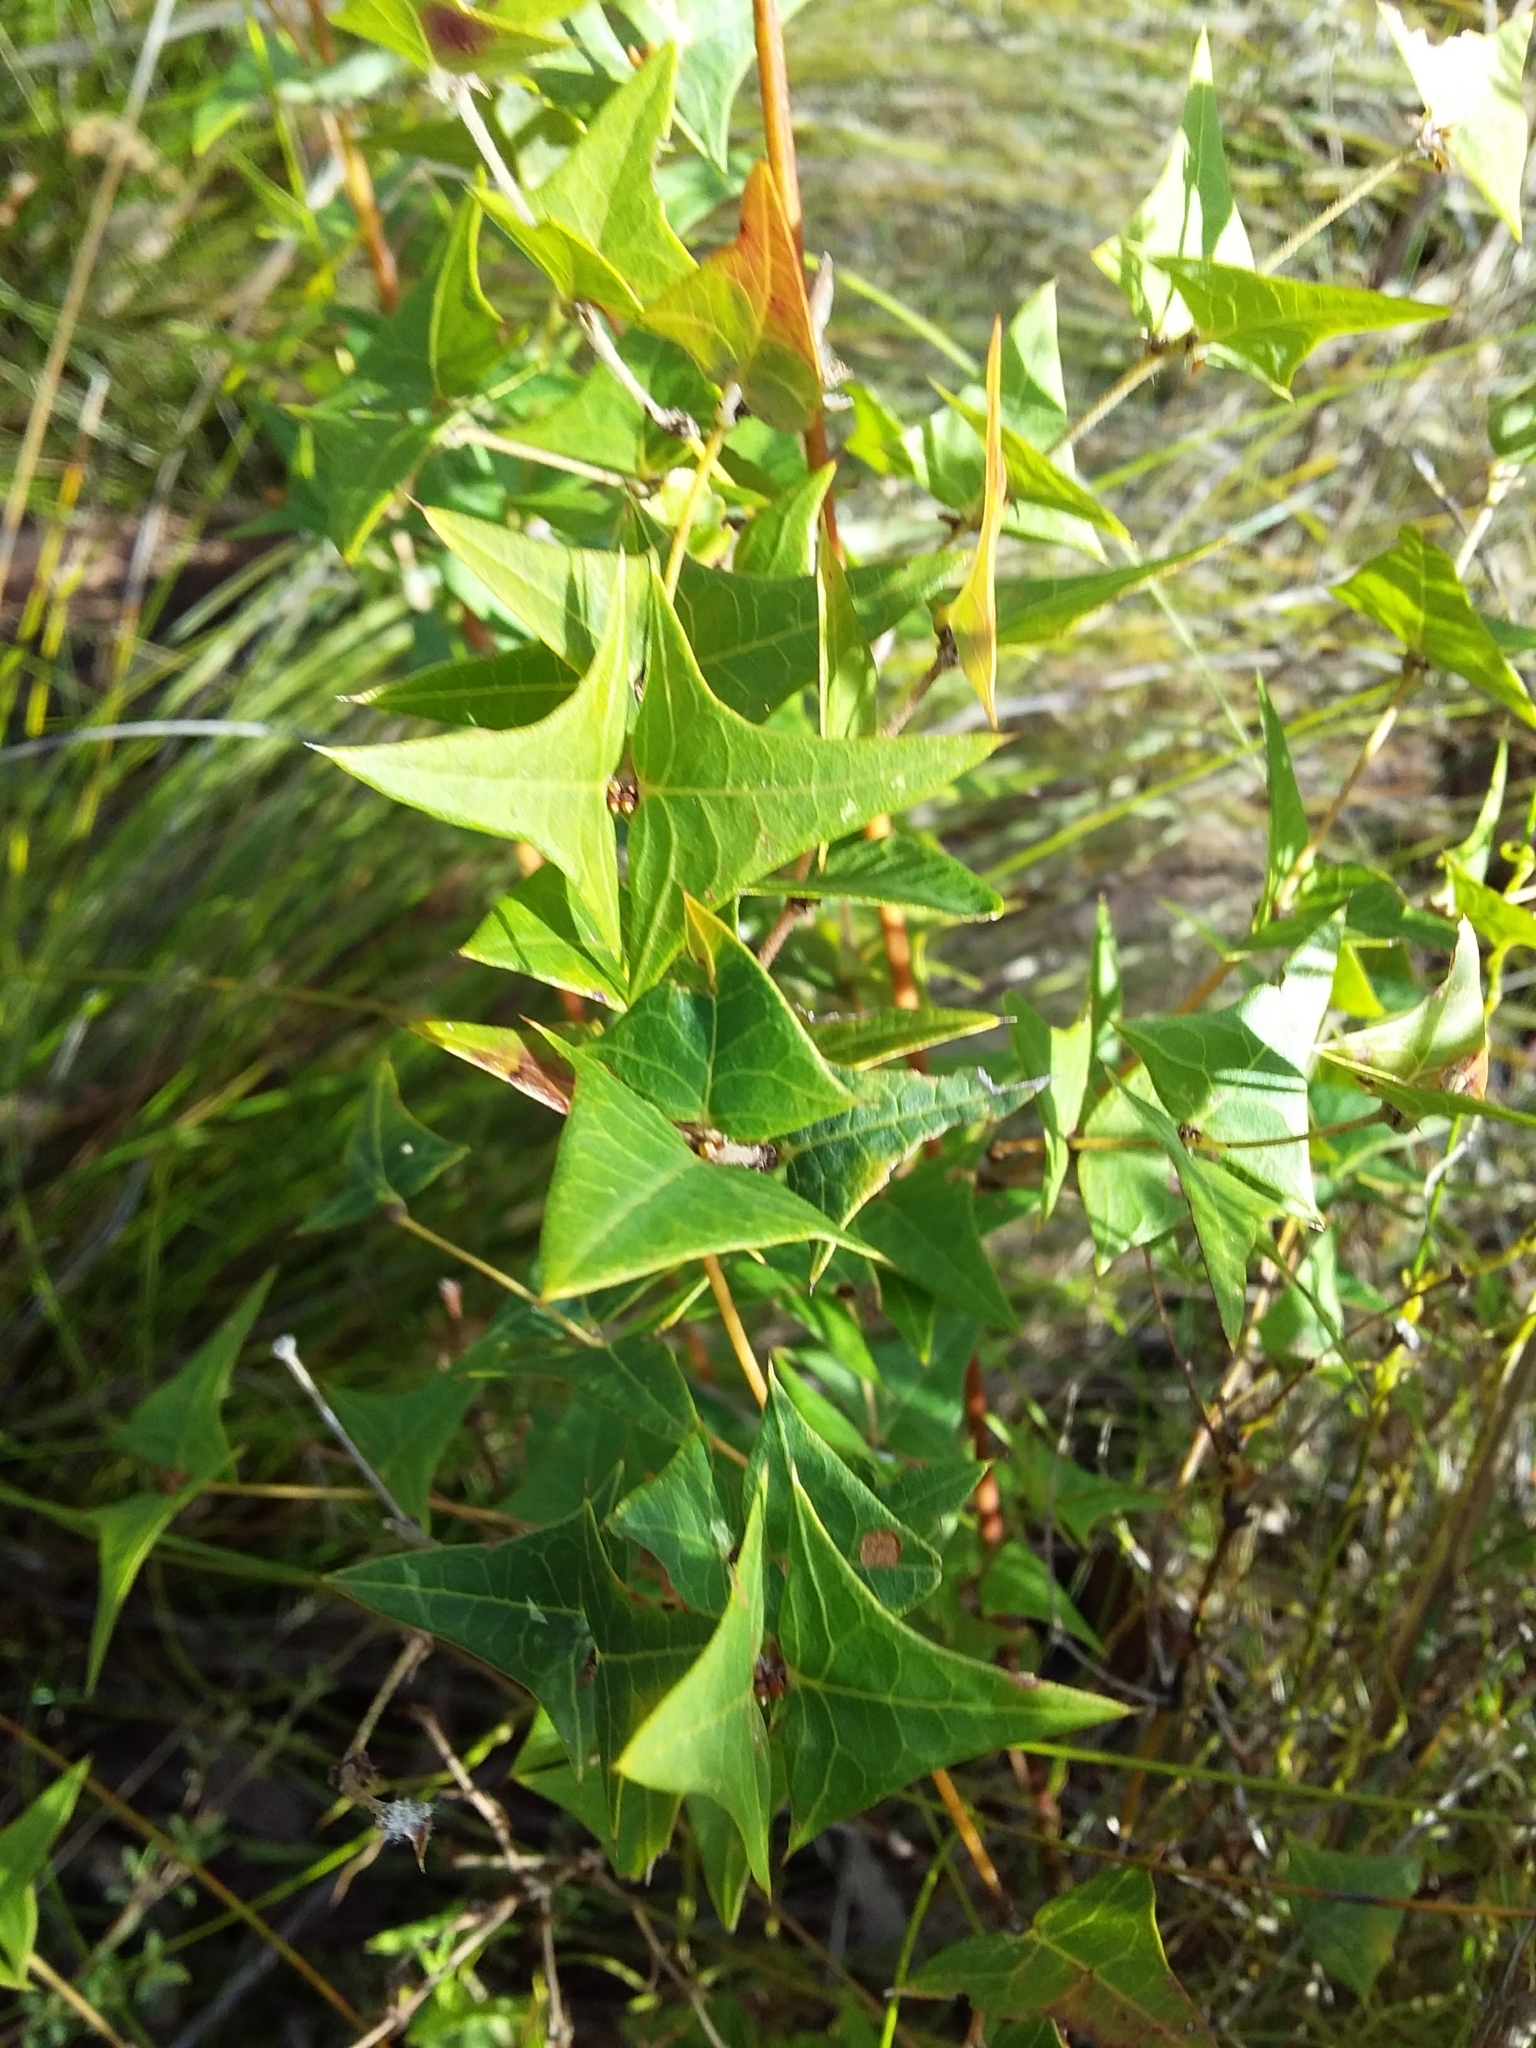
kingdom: Plantae
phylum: Tracheophyta
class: Magnoliopsida
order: Fabales
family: Fabaceae
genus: Platylobium
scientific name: Platylobium obtusangulum
